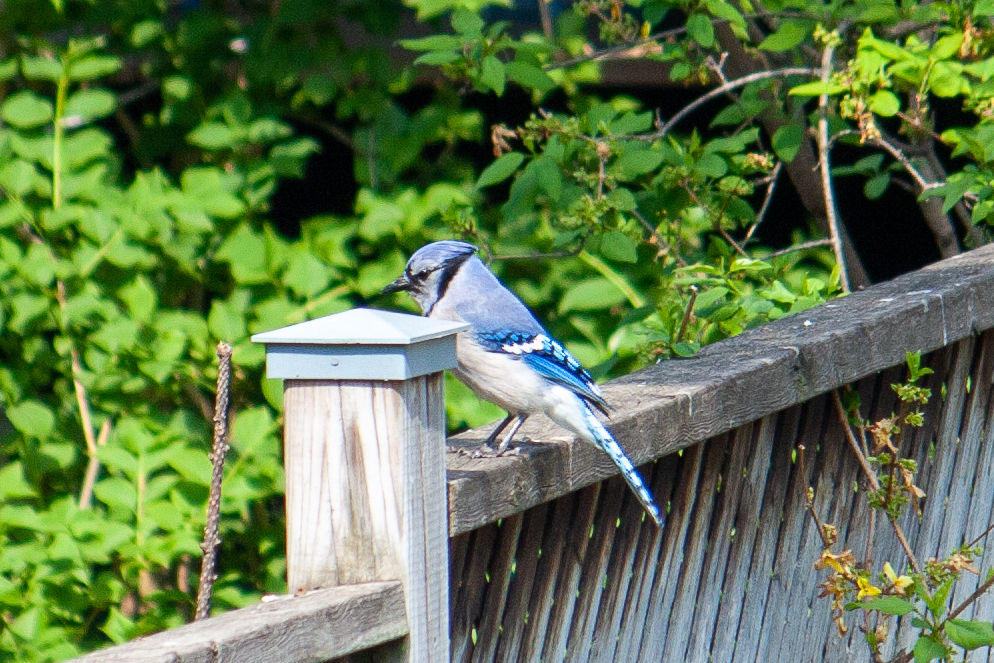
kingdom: Animalia
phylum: Chordata
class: Aves
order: Passeriformes
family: Corvidae
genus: Cyanocitta
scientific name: Cyanocitta cristata
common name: Blue jay
